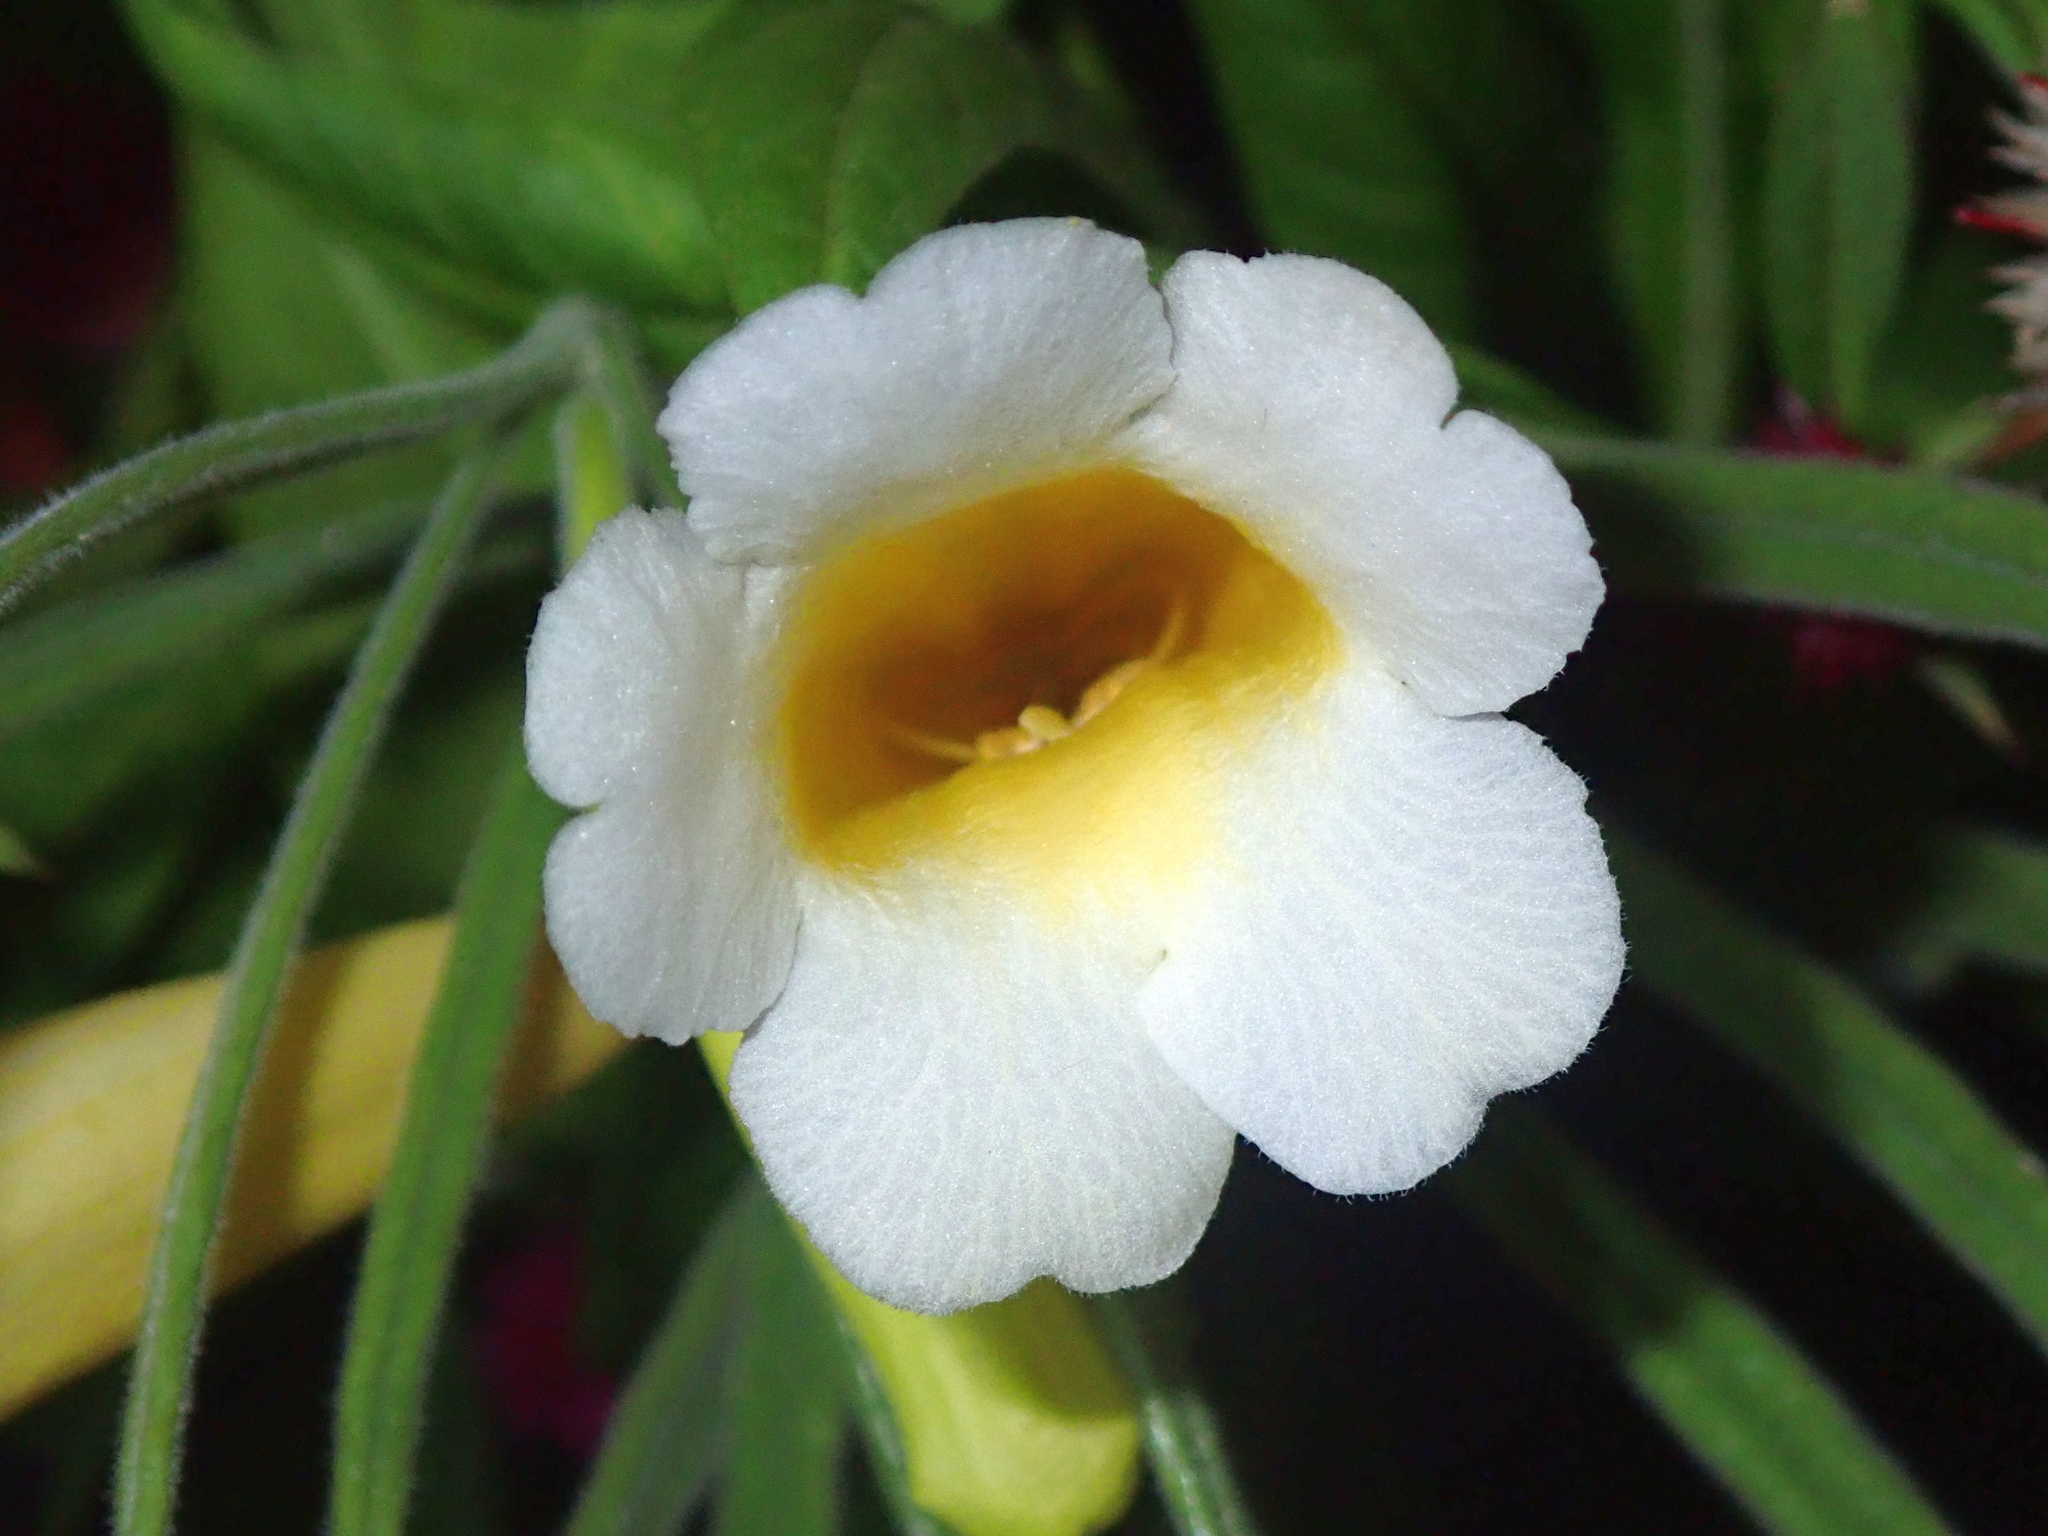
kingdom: Plantae
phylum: Tracheophyta
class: Magnoliopsida
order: Lamiales
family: Bignoniaceae
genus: Anemopaegma
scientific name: Anemopaegma arvense
